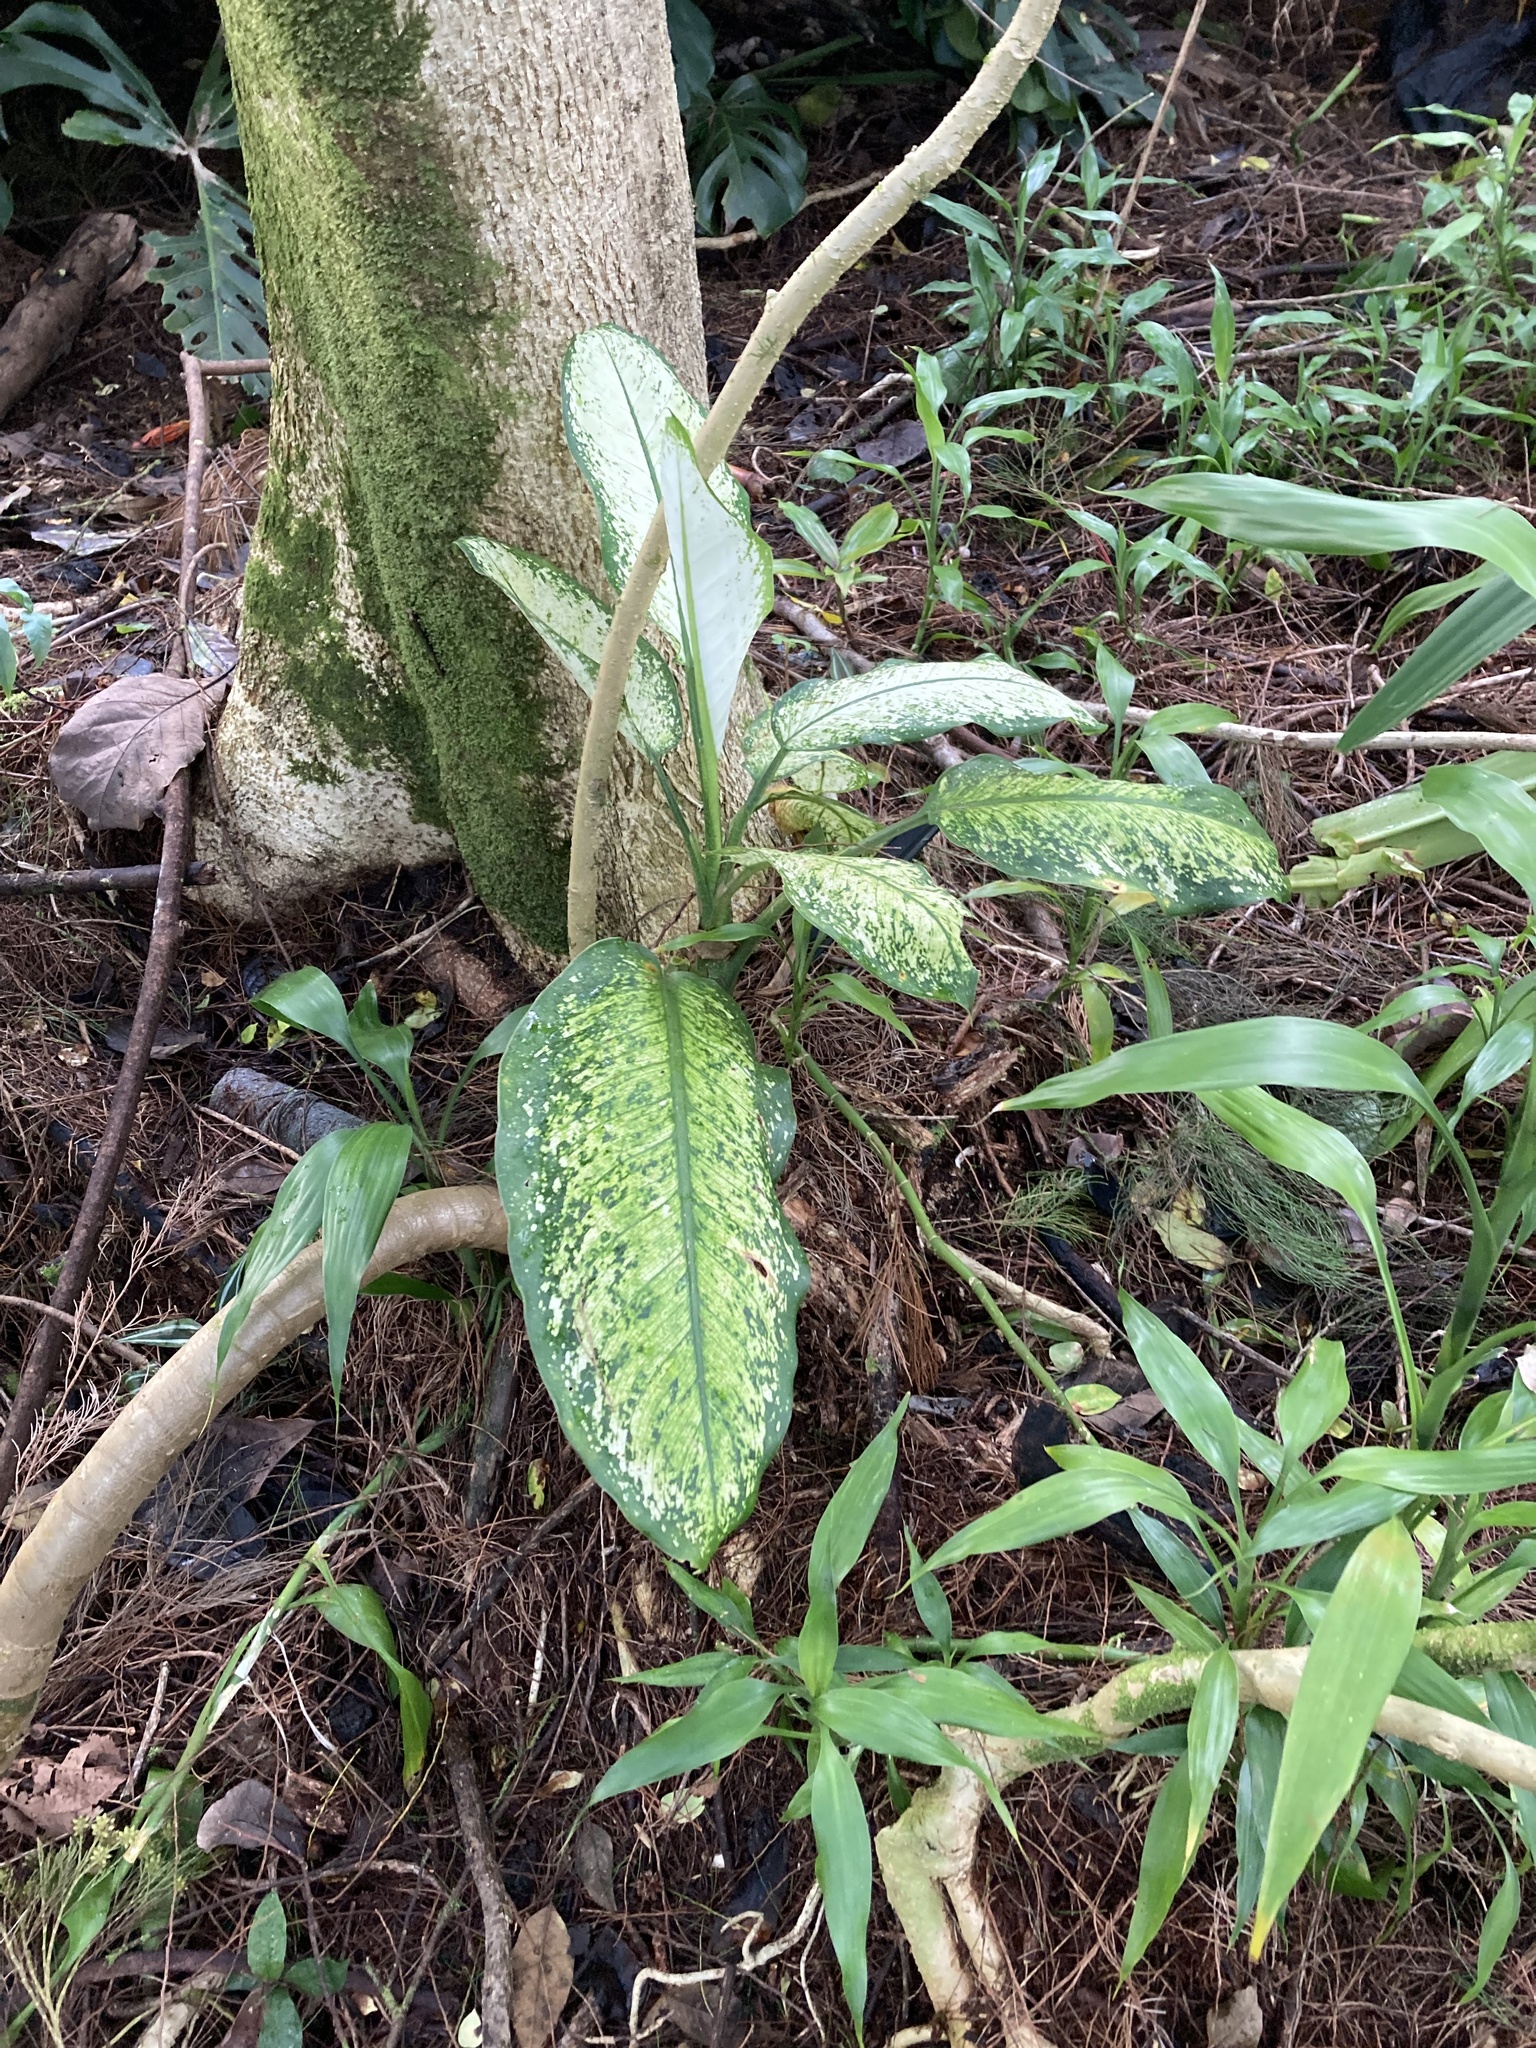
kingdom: Plantae
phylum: Tracheophyta
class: Liliopsida
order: Alismatales
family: Araceae
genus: Dieffenbachia
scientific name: Dieffenbachia seguine
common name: Dumbcane
